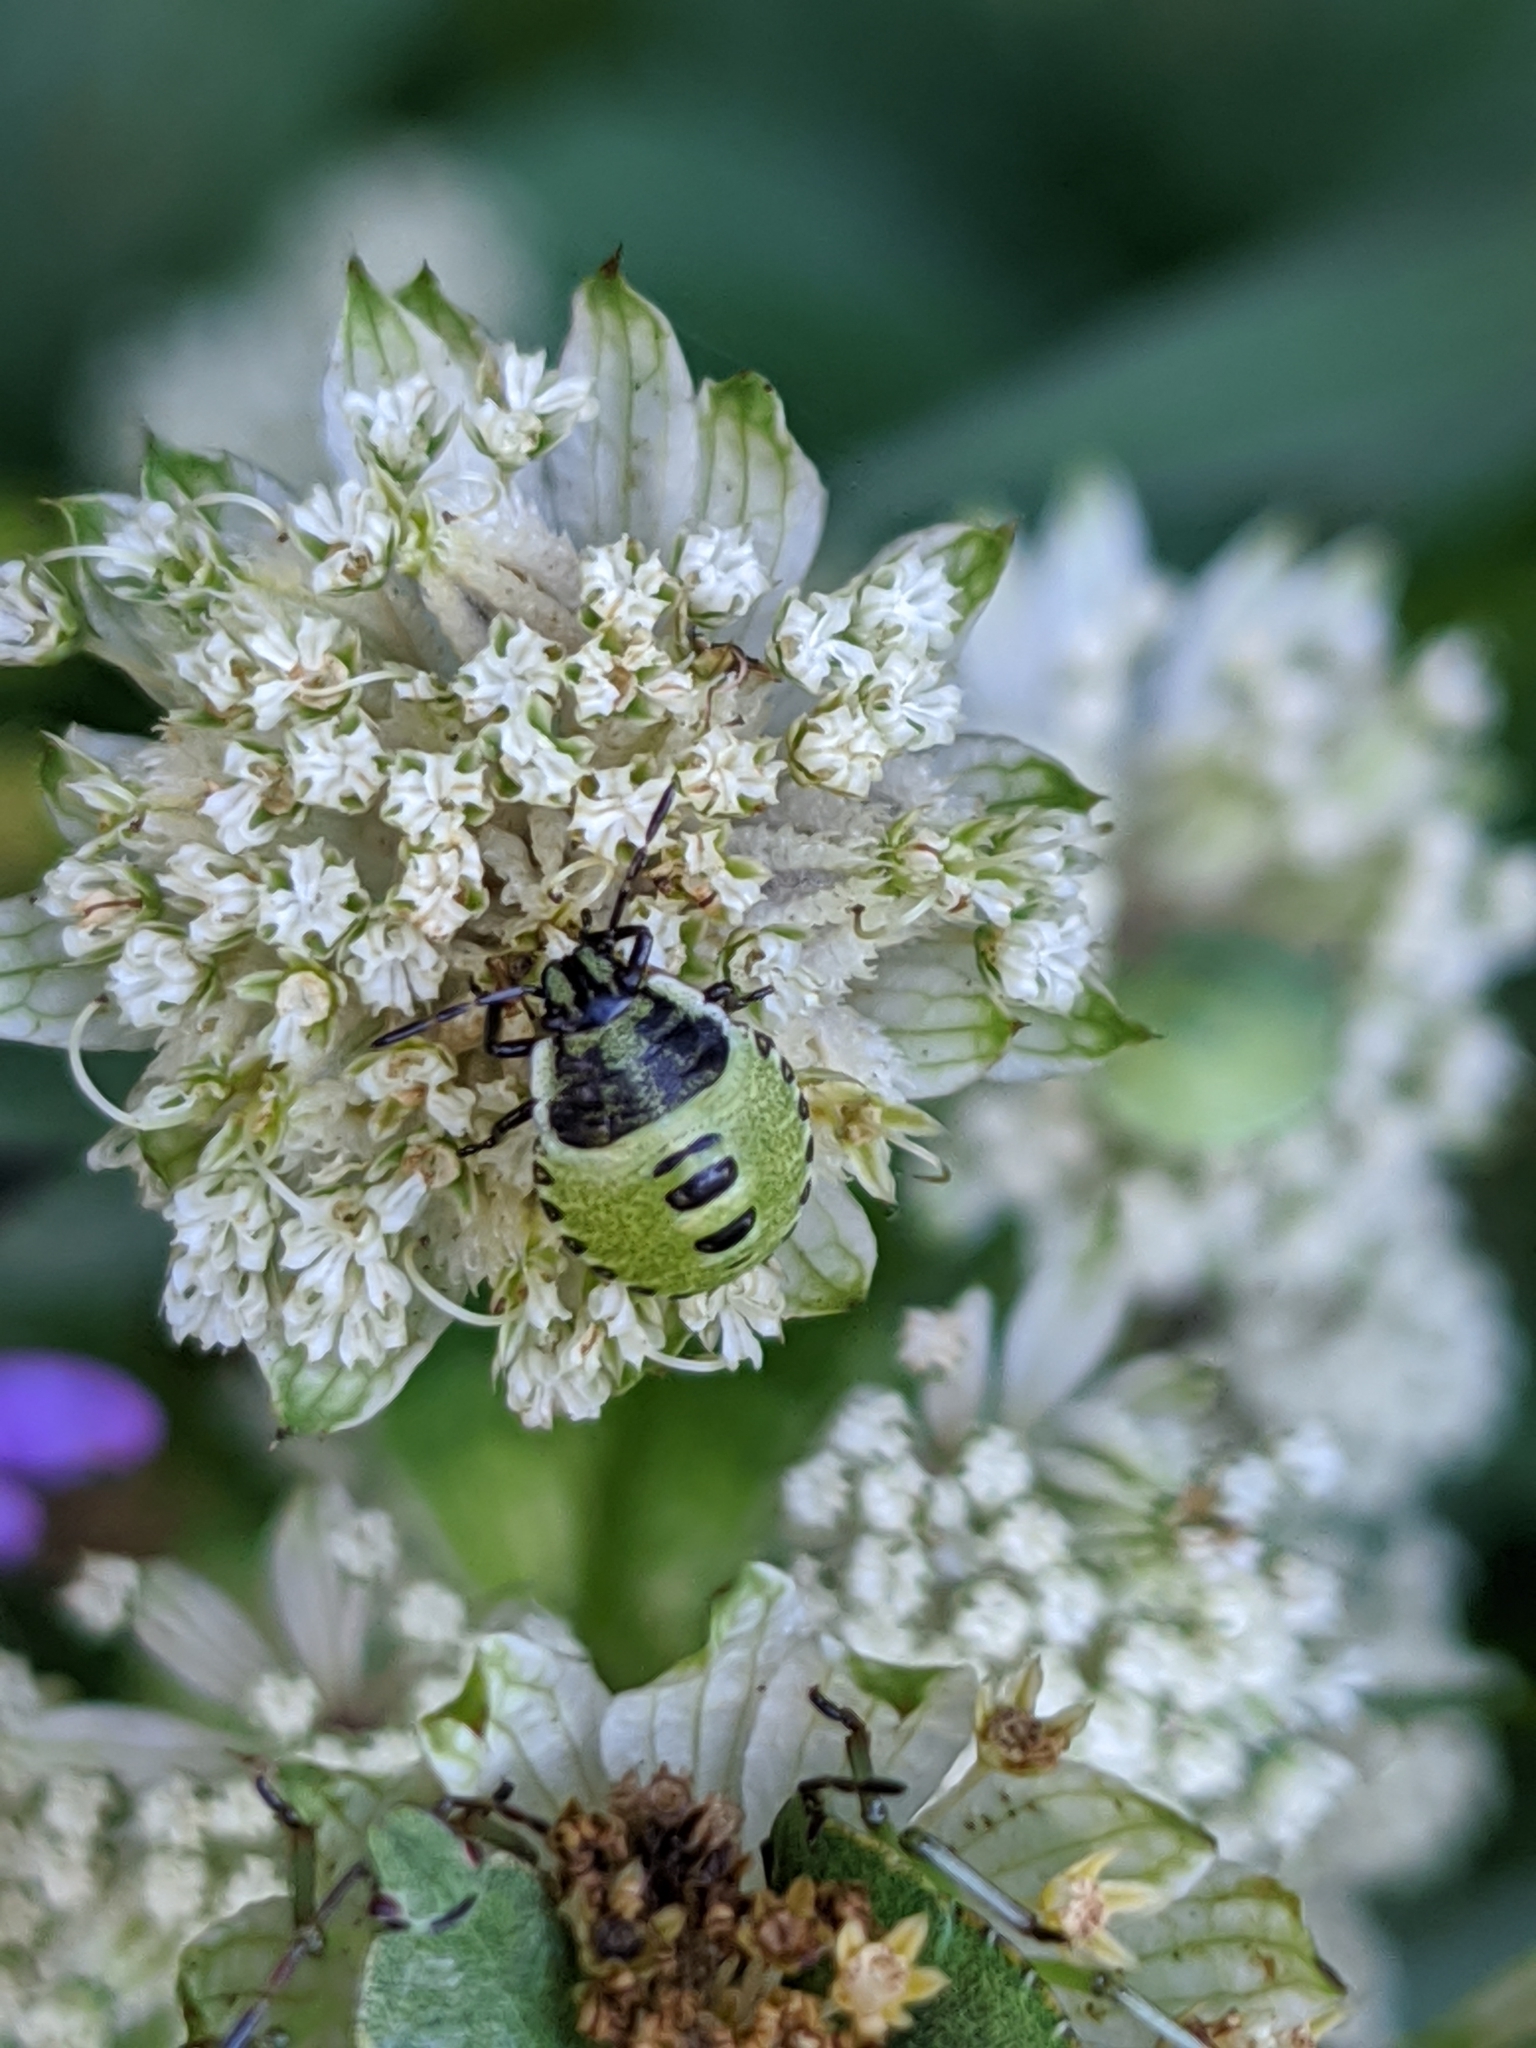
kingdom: Animalia
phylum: Arthropoda
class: Insecta
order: Hemiptera
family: Pentatomidae
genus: Palomena
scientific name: Palomena prasina
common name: Green shieldbug
